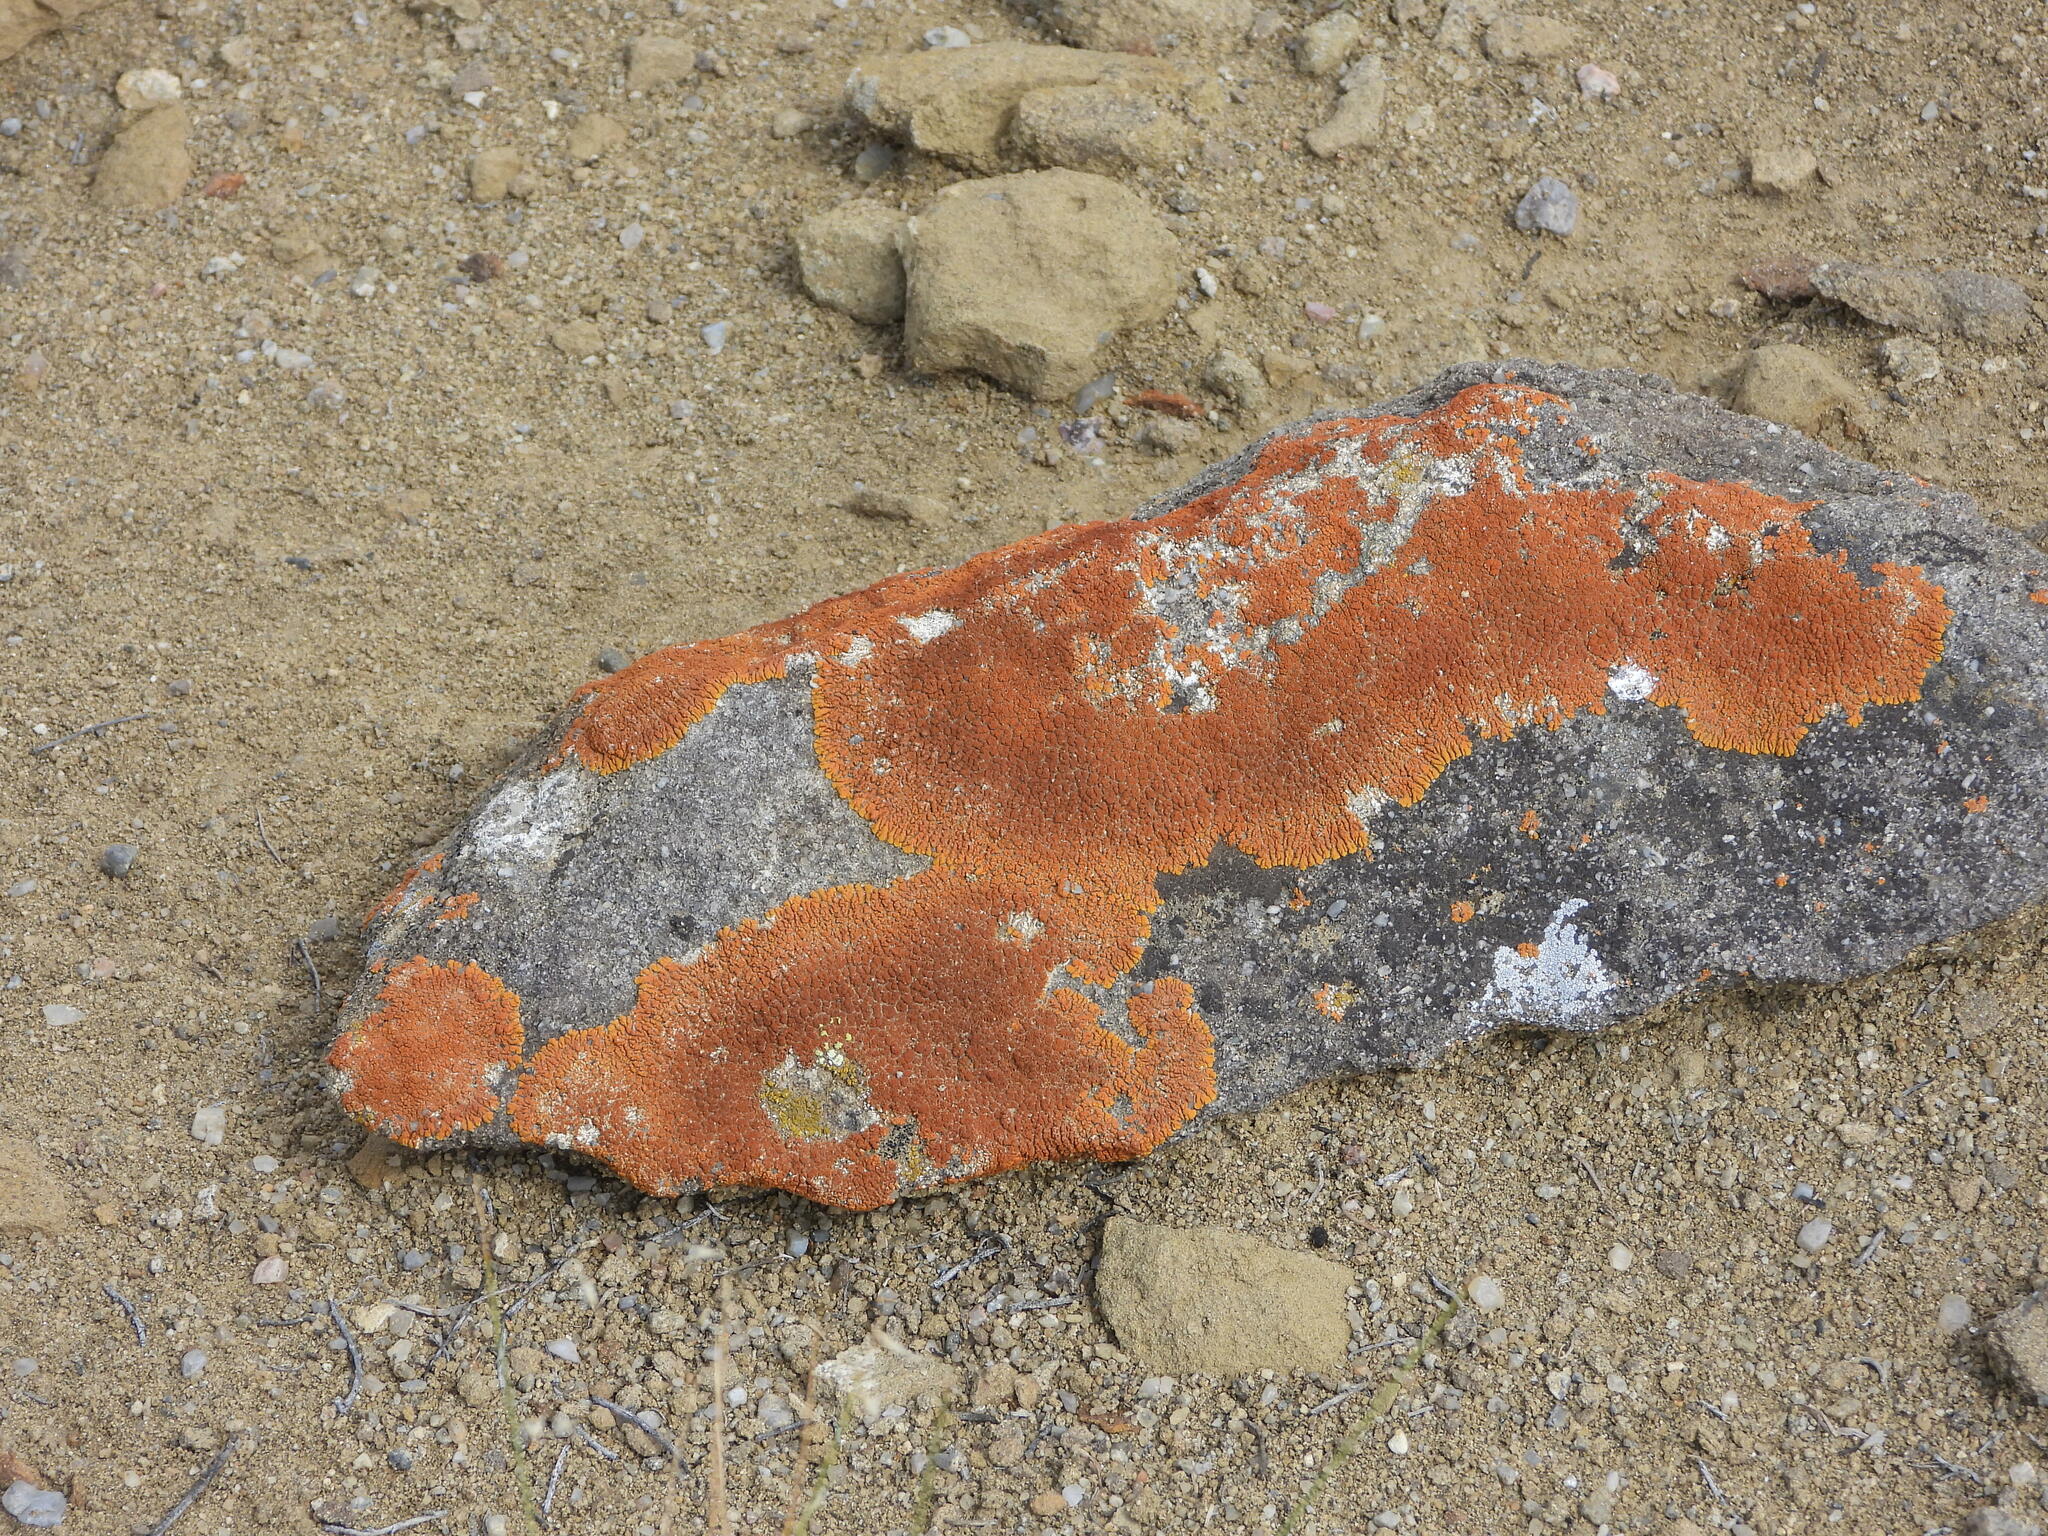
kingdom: Fungi
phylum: Ascomycota
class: Lecanoromycetes
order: Teloschistales
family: Teloschistaceae
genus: Golubkovia
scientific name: Golubkovia trachyphylla
